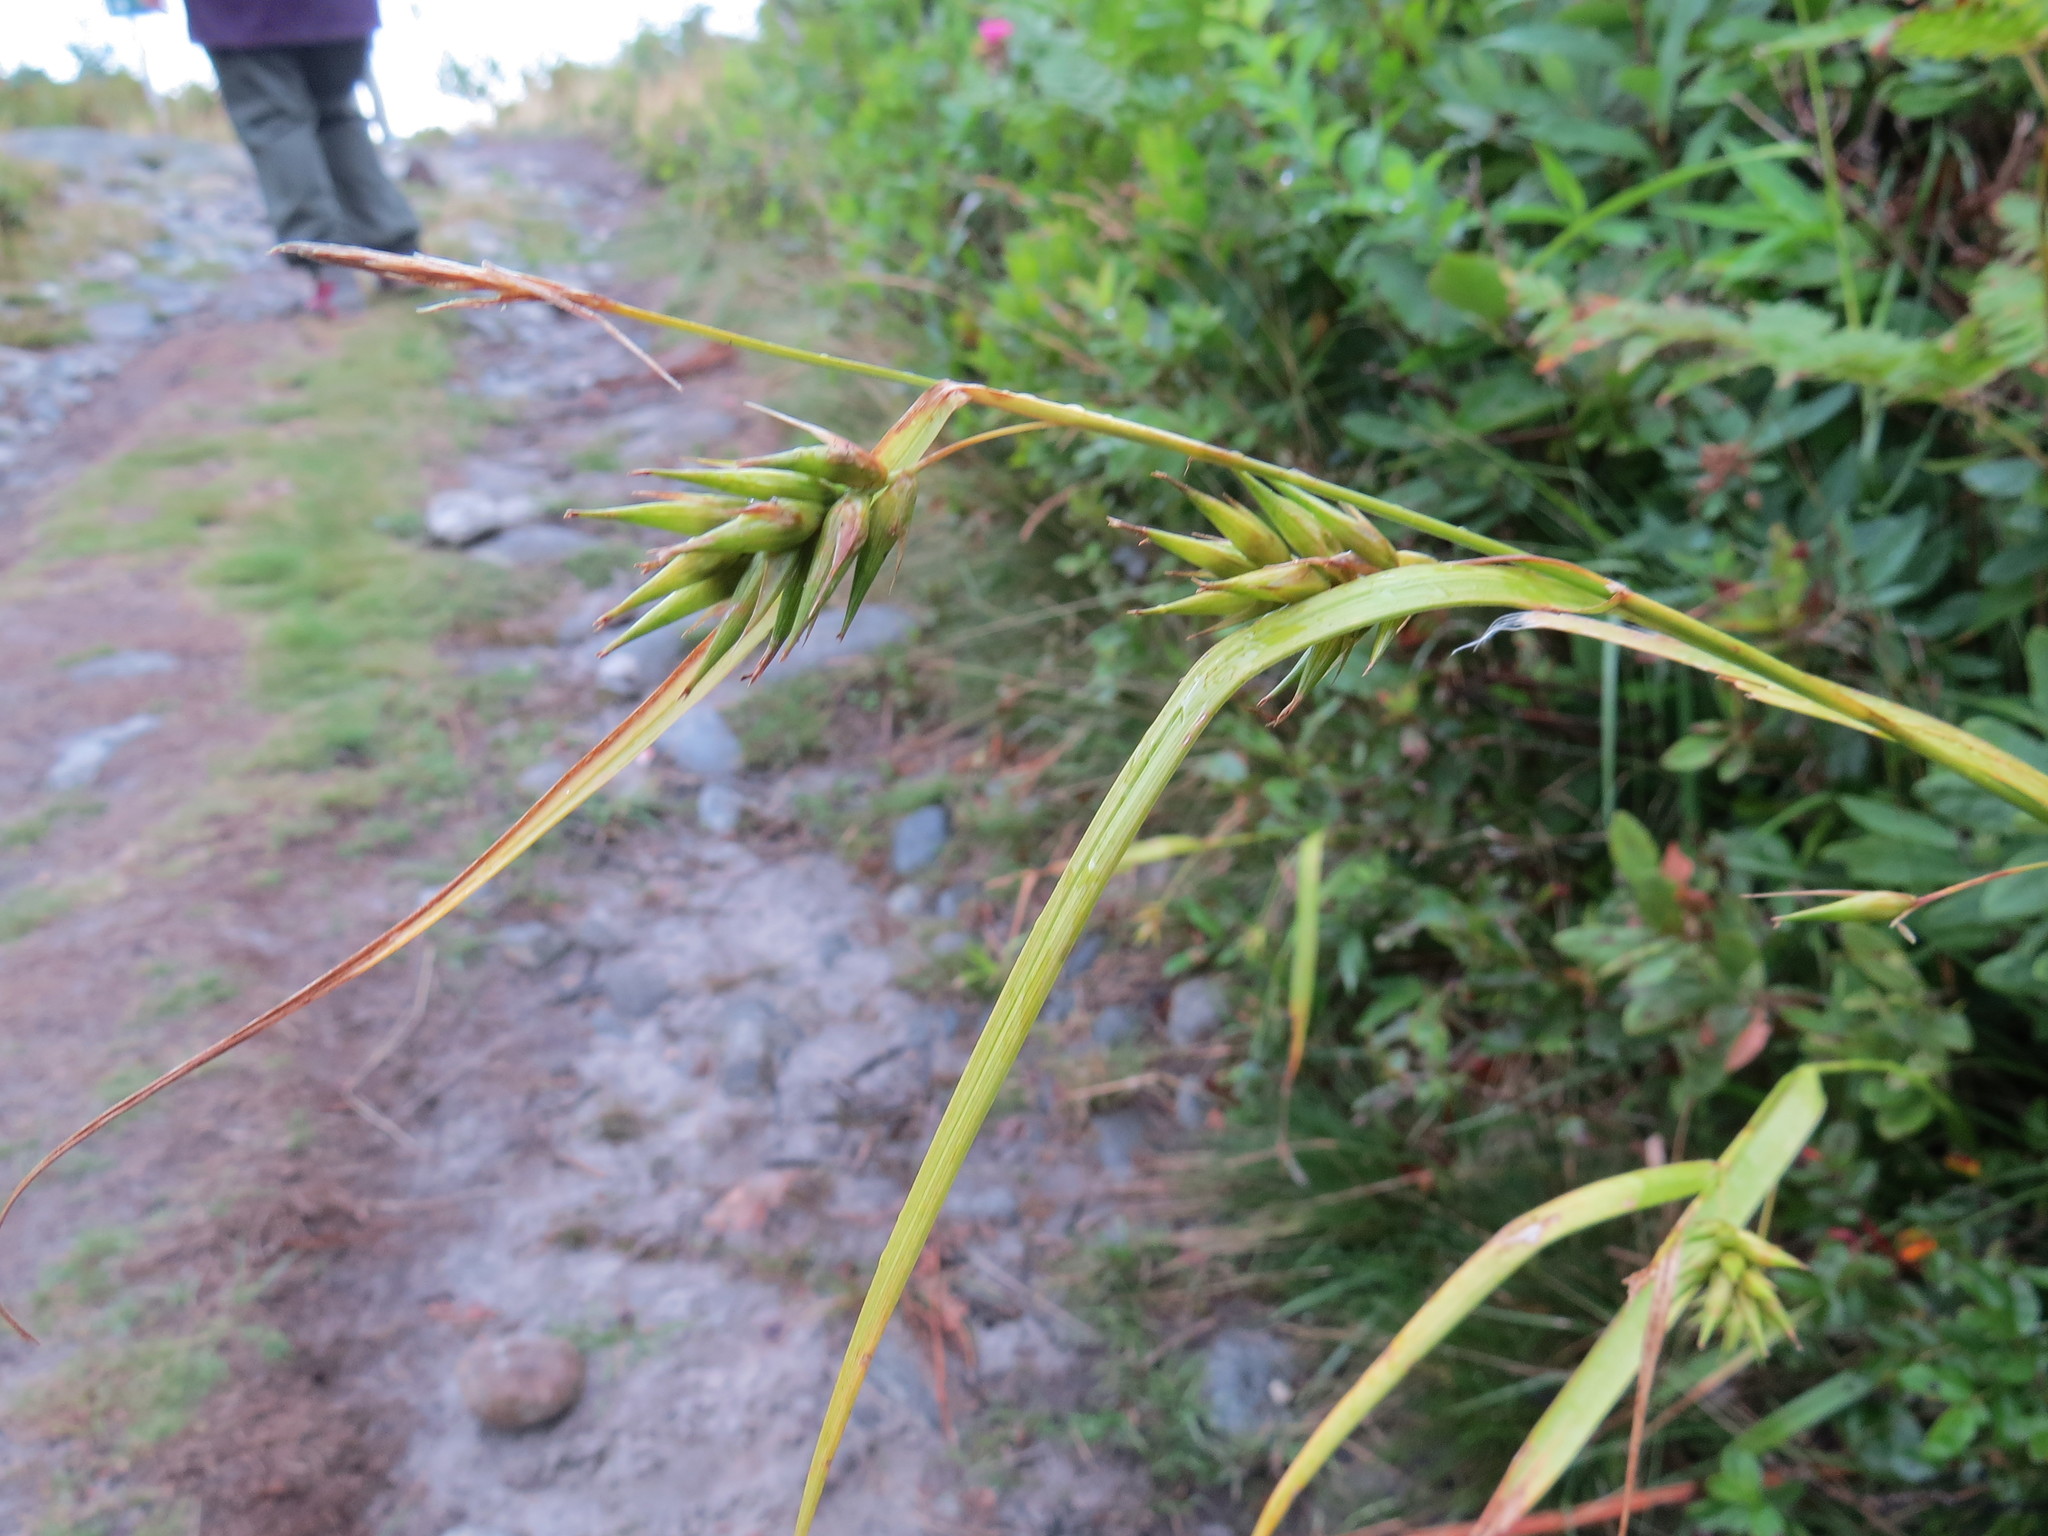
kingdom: Plantae
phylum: Tracheophyta
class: Liliopsida
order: Poales
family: Cyperaceae
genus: Carex
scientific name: Carex folliculata
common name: Northern long sedge
